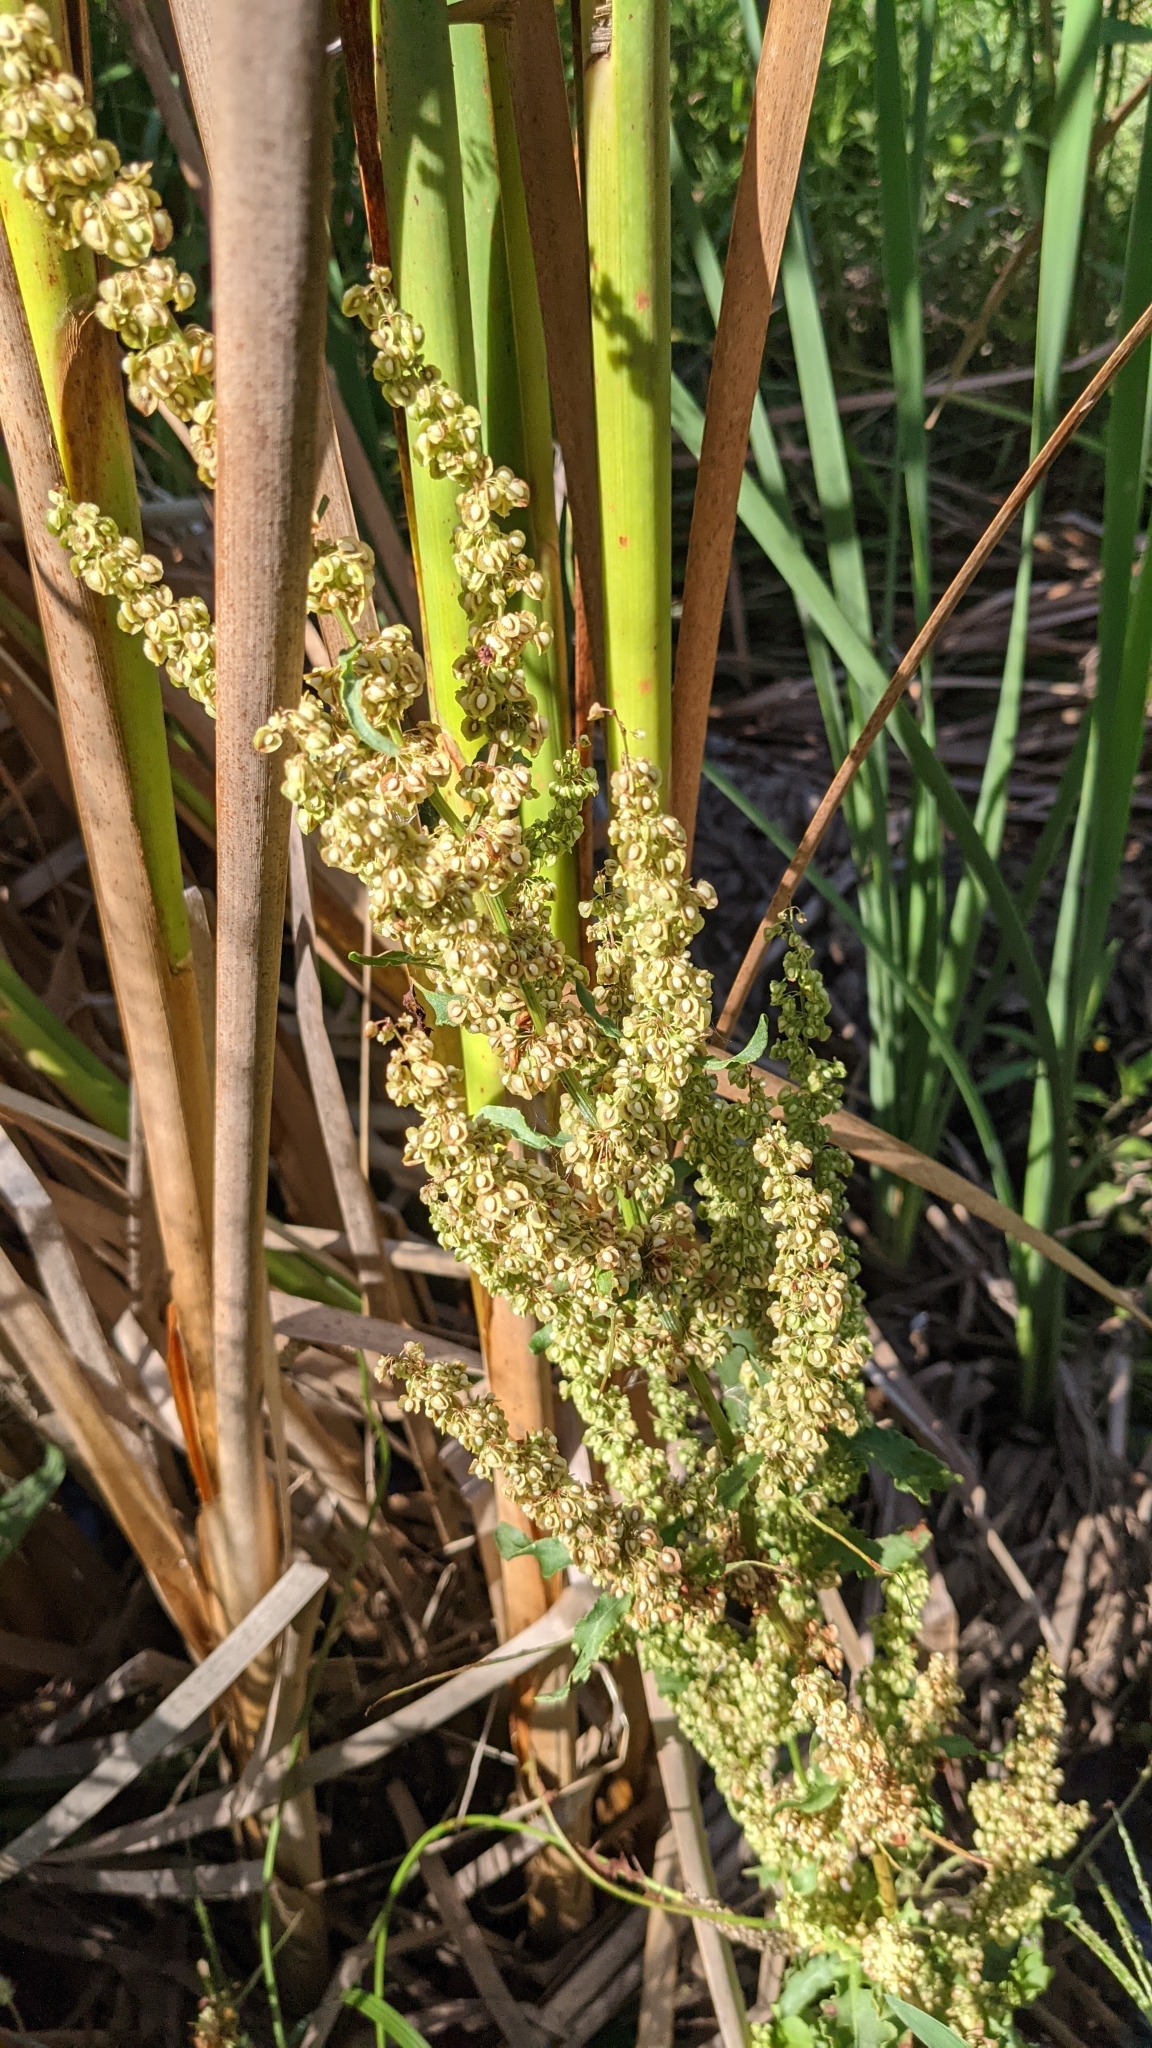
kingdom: Plantae
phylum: Tracheophyta
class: Magnoliopsida
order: Caryophyllales
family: Polygonaceae
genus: Rumex
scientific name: Rumex crispus
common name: Curled dock
